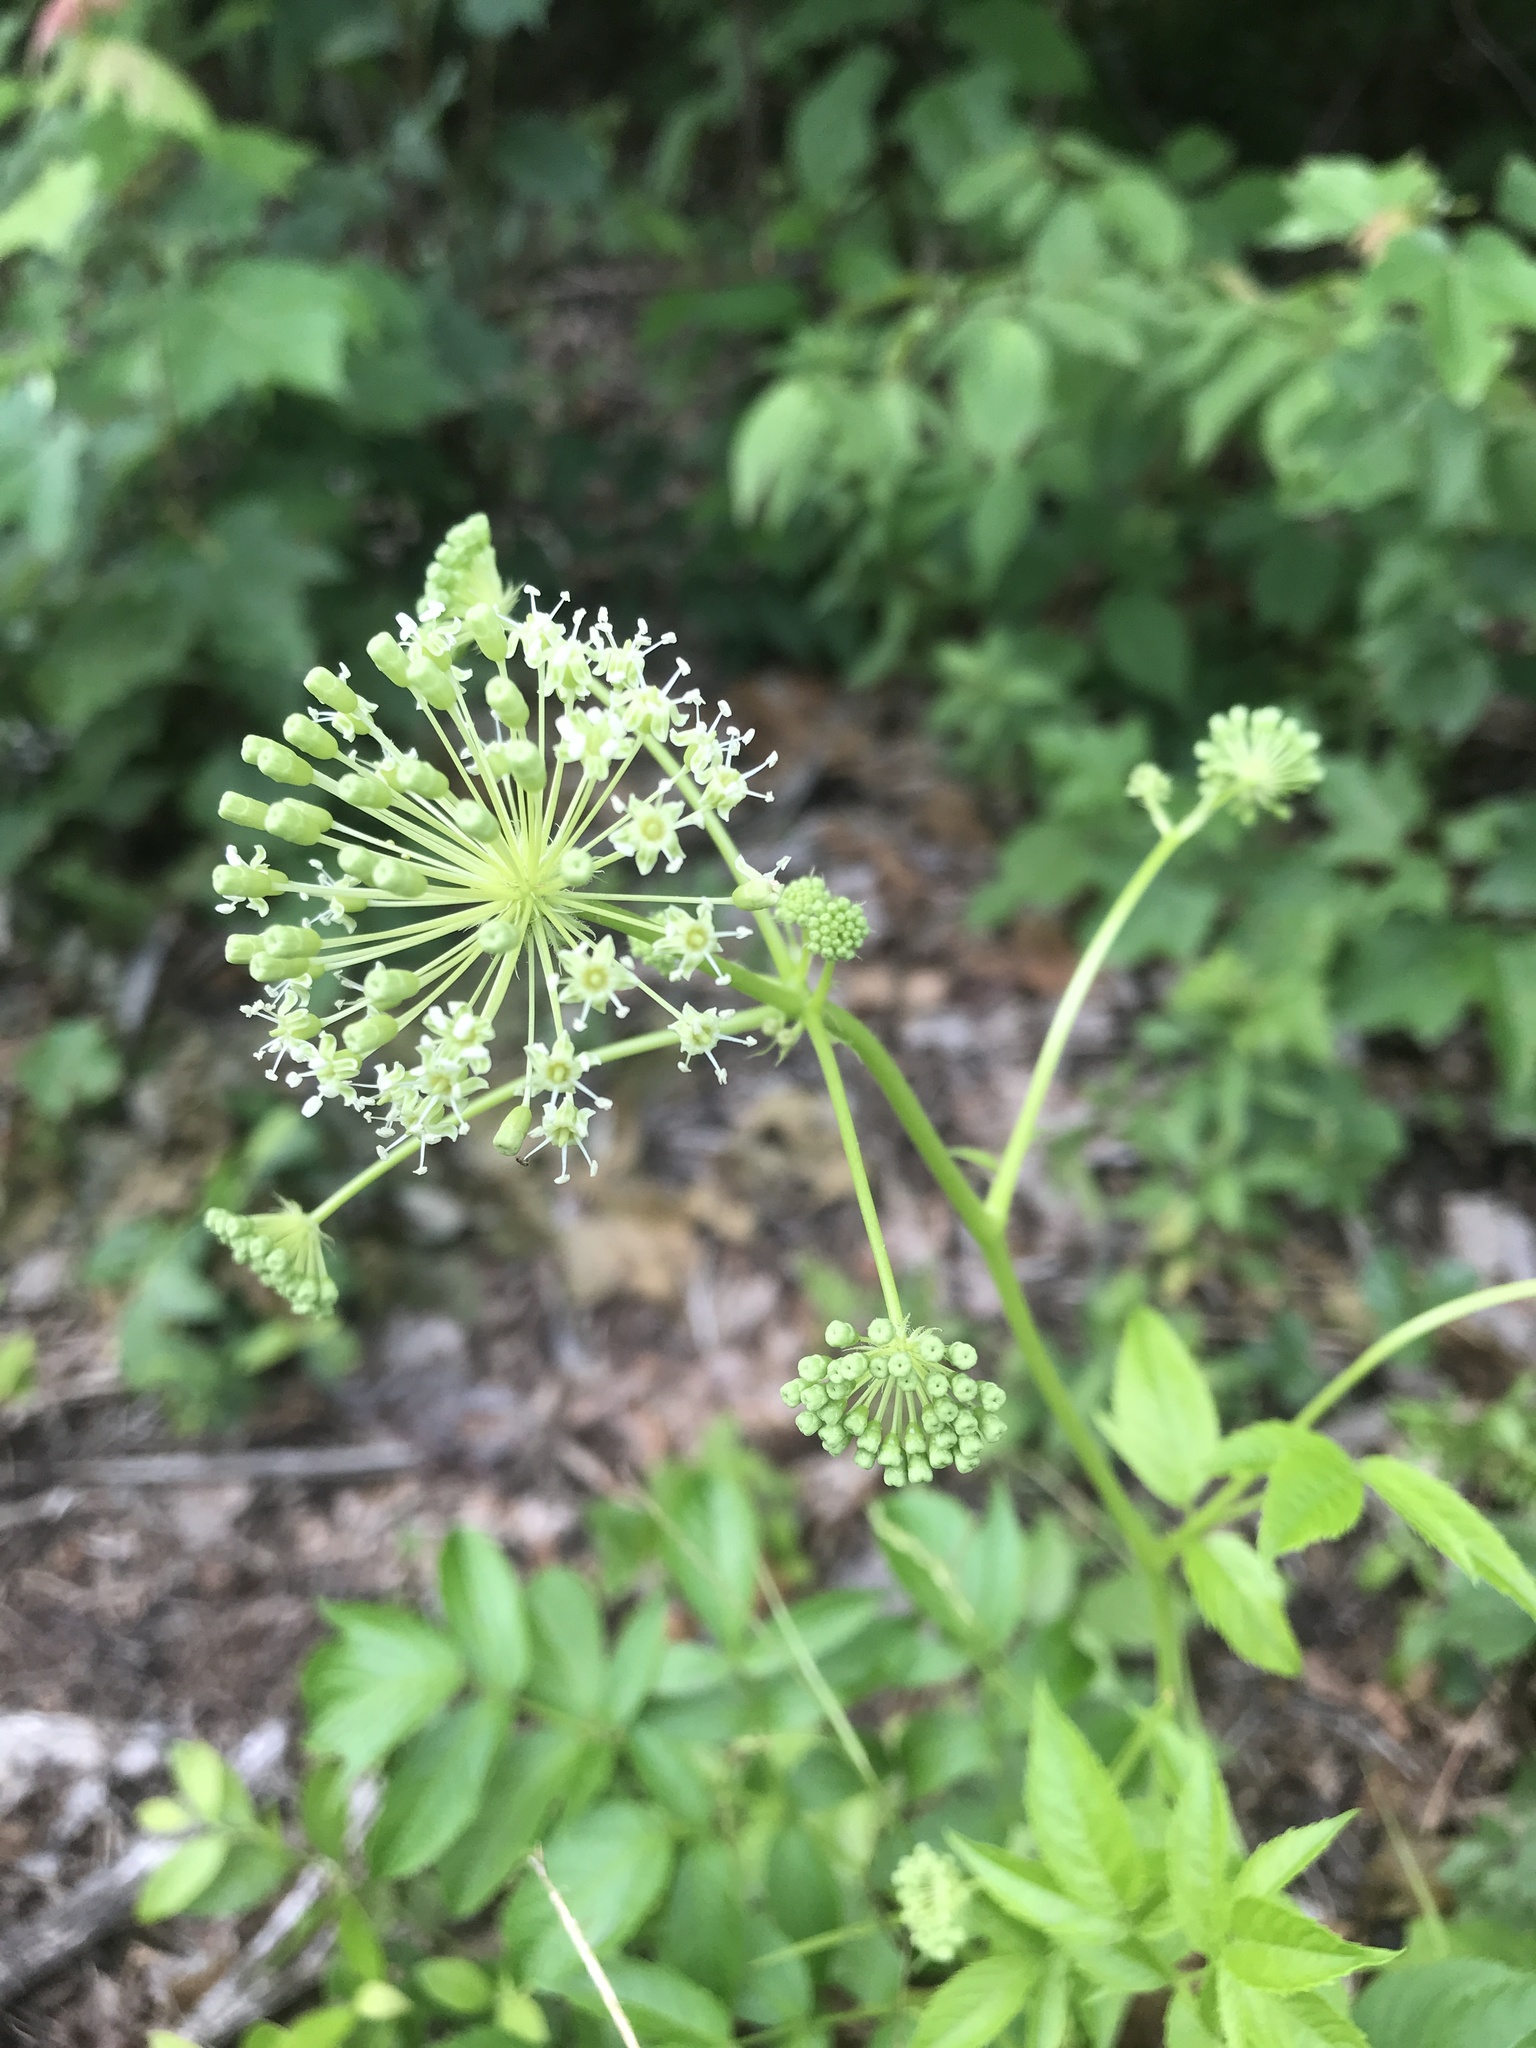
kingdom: Plantae
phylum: Tracheophyta
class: Magnoliopsida
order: Apiales
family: Araliaceae
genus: Aralia
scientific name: Aralia hispida
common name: Bristly sarsaparilla
